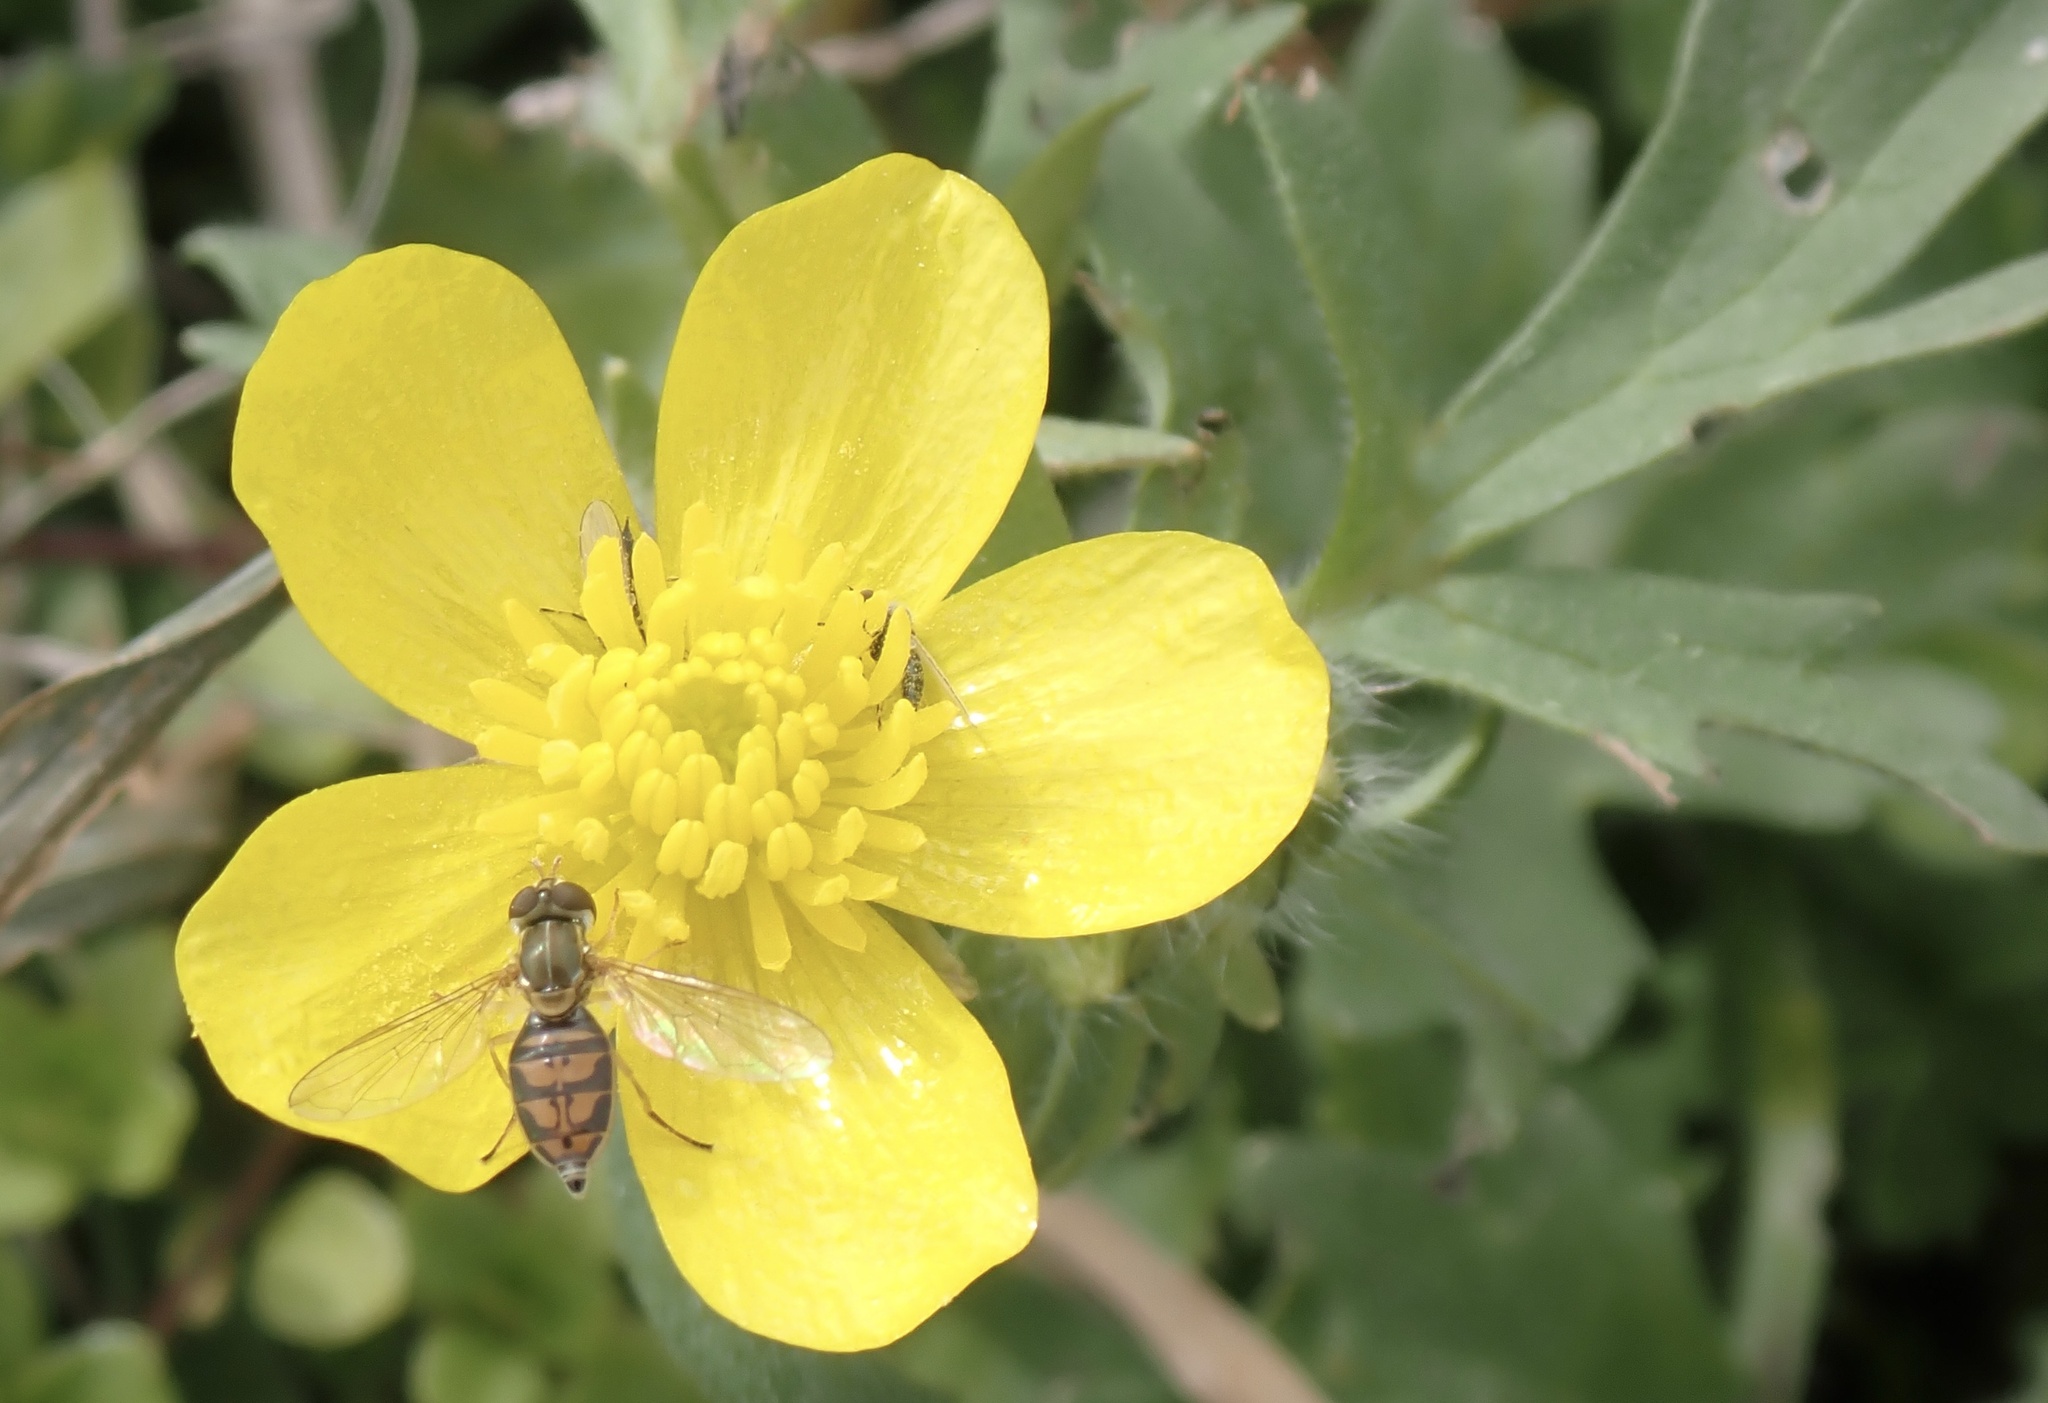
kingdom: Animalia
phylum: Arthropoda
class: Insecta
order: Diptera
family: Syrphidae
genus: Toxomerus
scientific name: Toxomerus marginatus
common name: Syrphid fly
